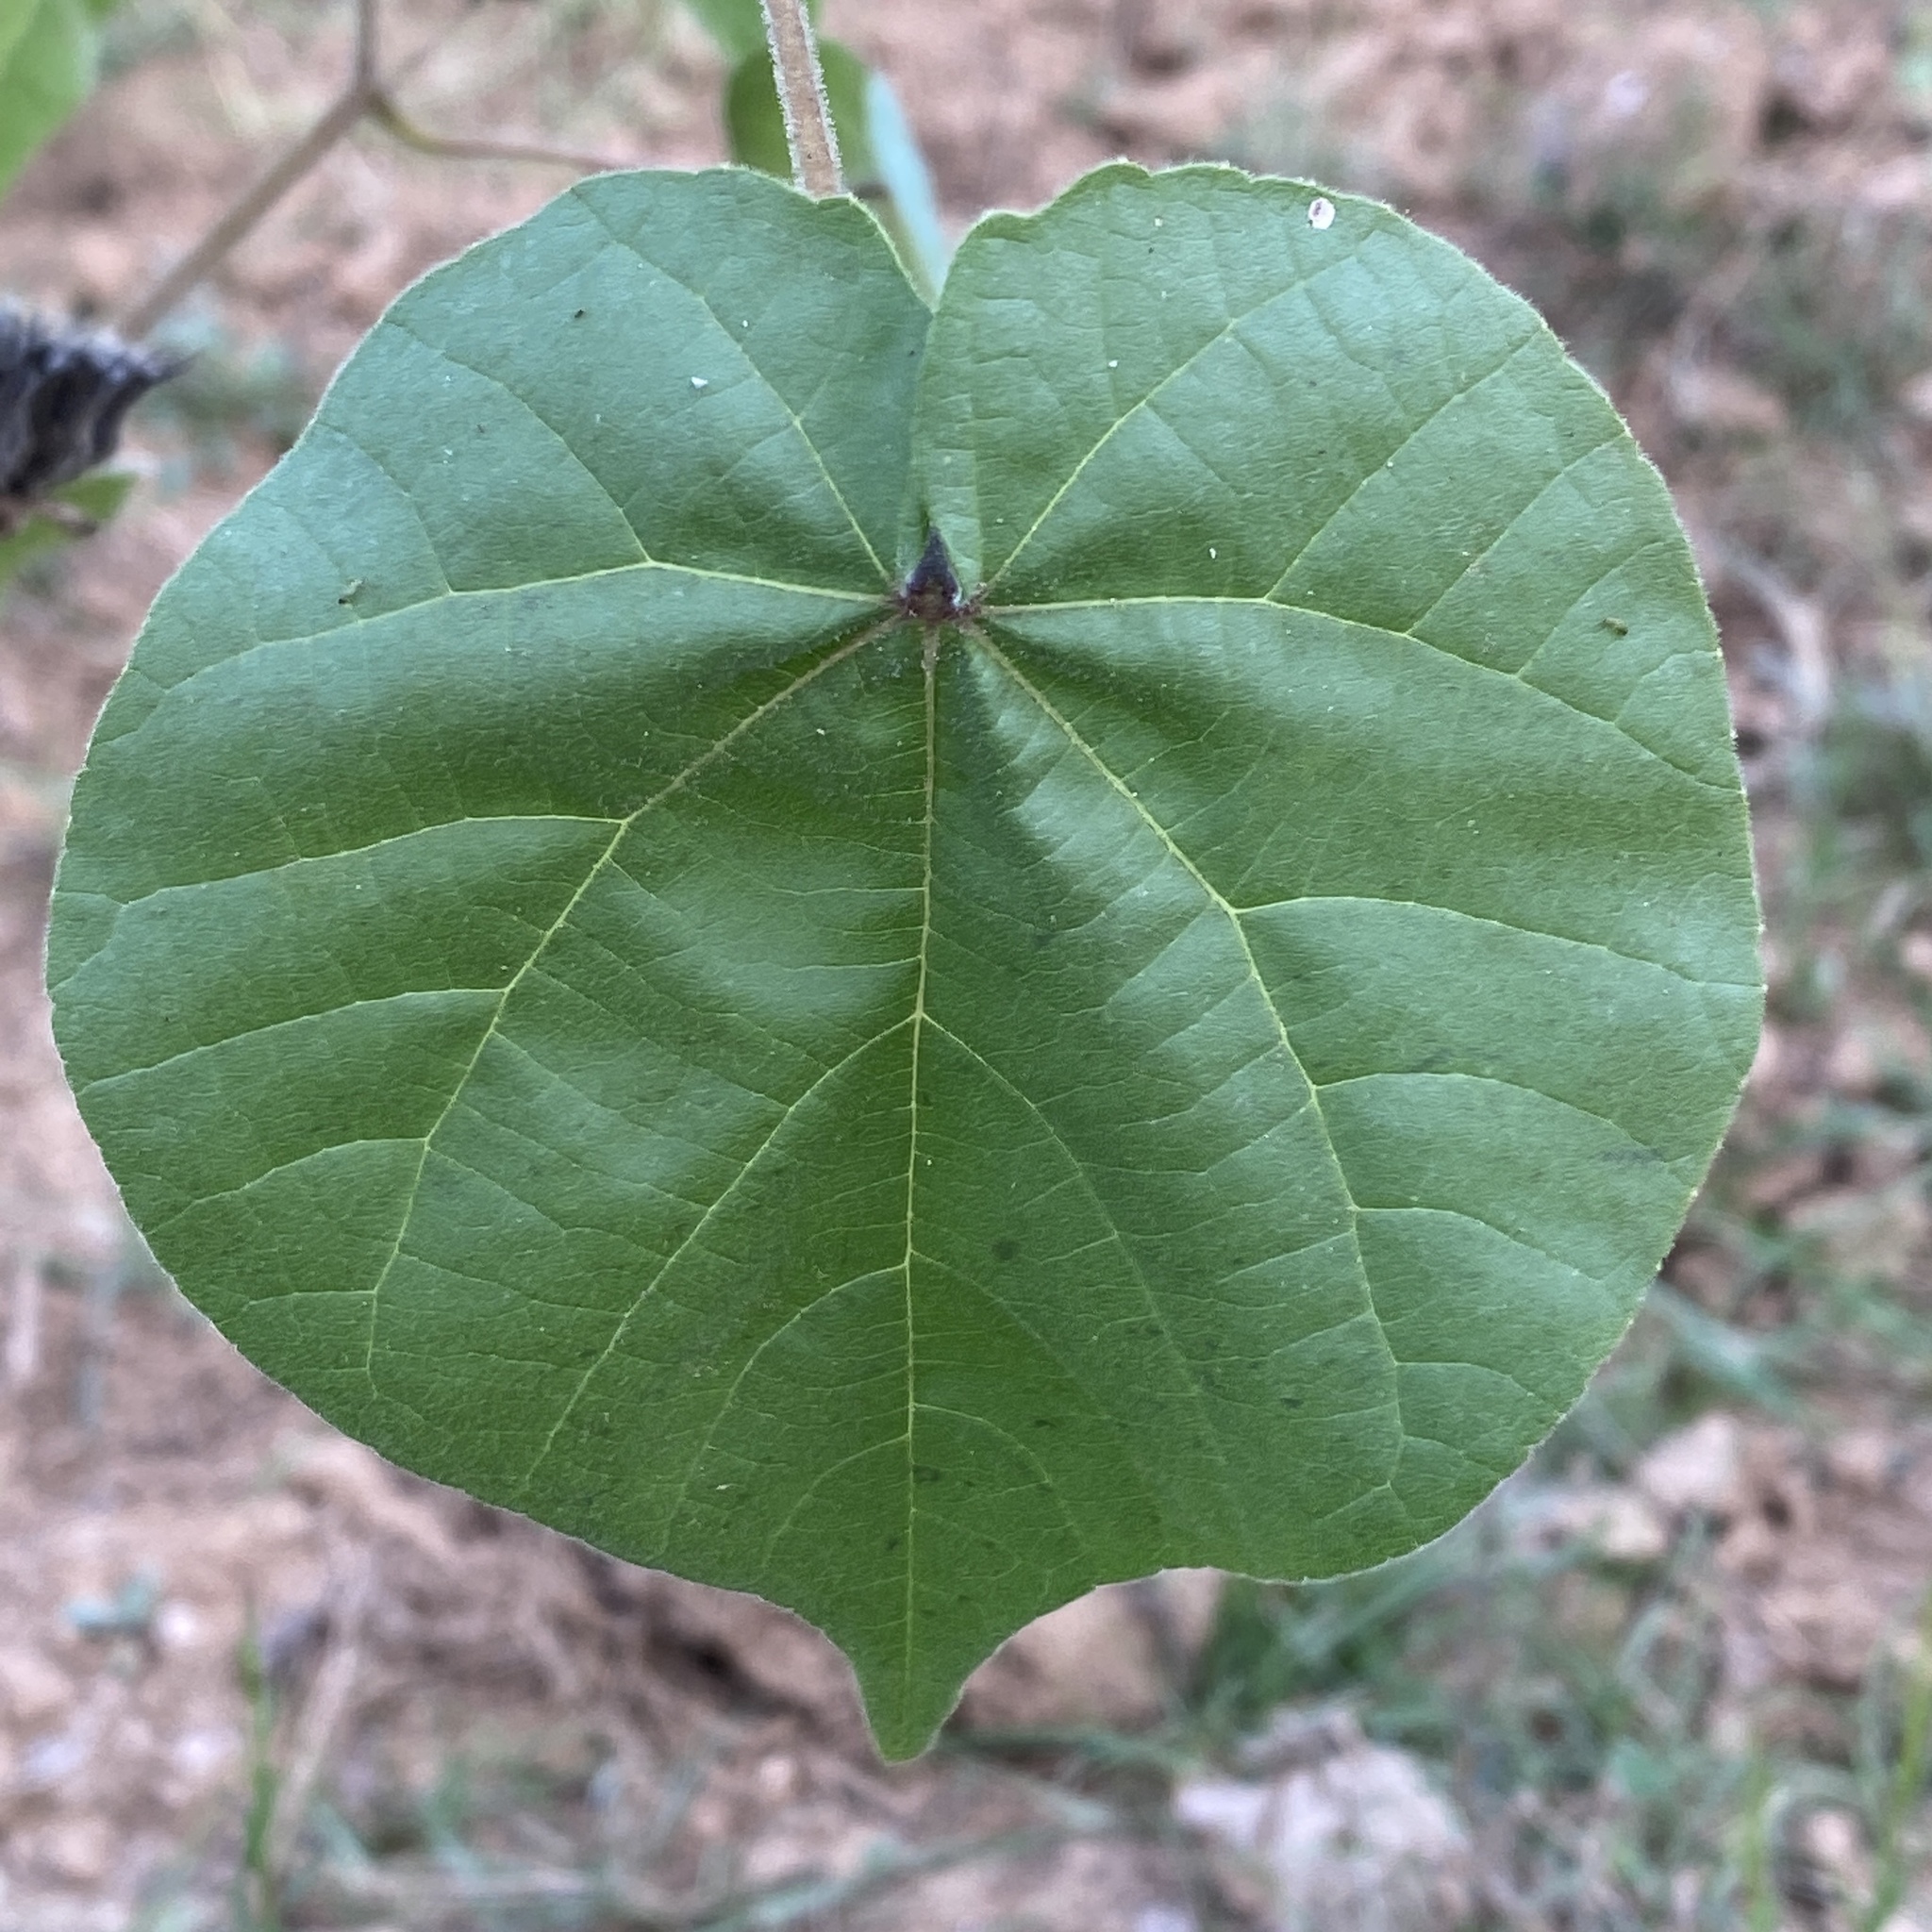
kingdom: Plantae
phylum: Tracheophyta
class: Magnoliopsida
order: Malvales
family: Malvaceae
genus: Abutilon
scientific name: Abutilon theophrasti
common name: Velvetleaf
